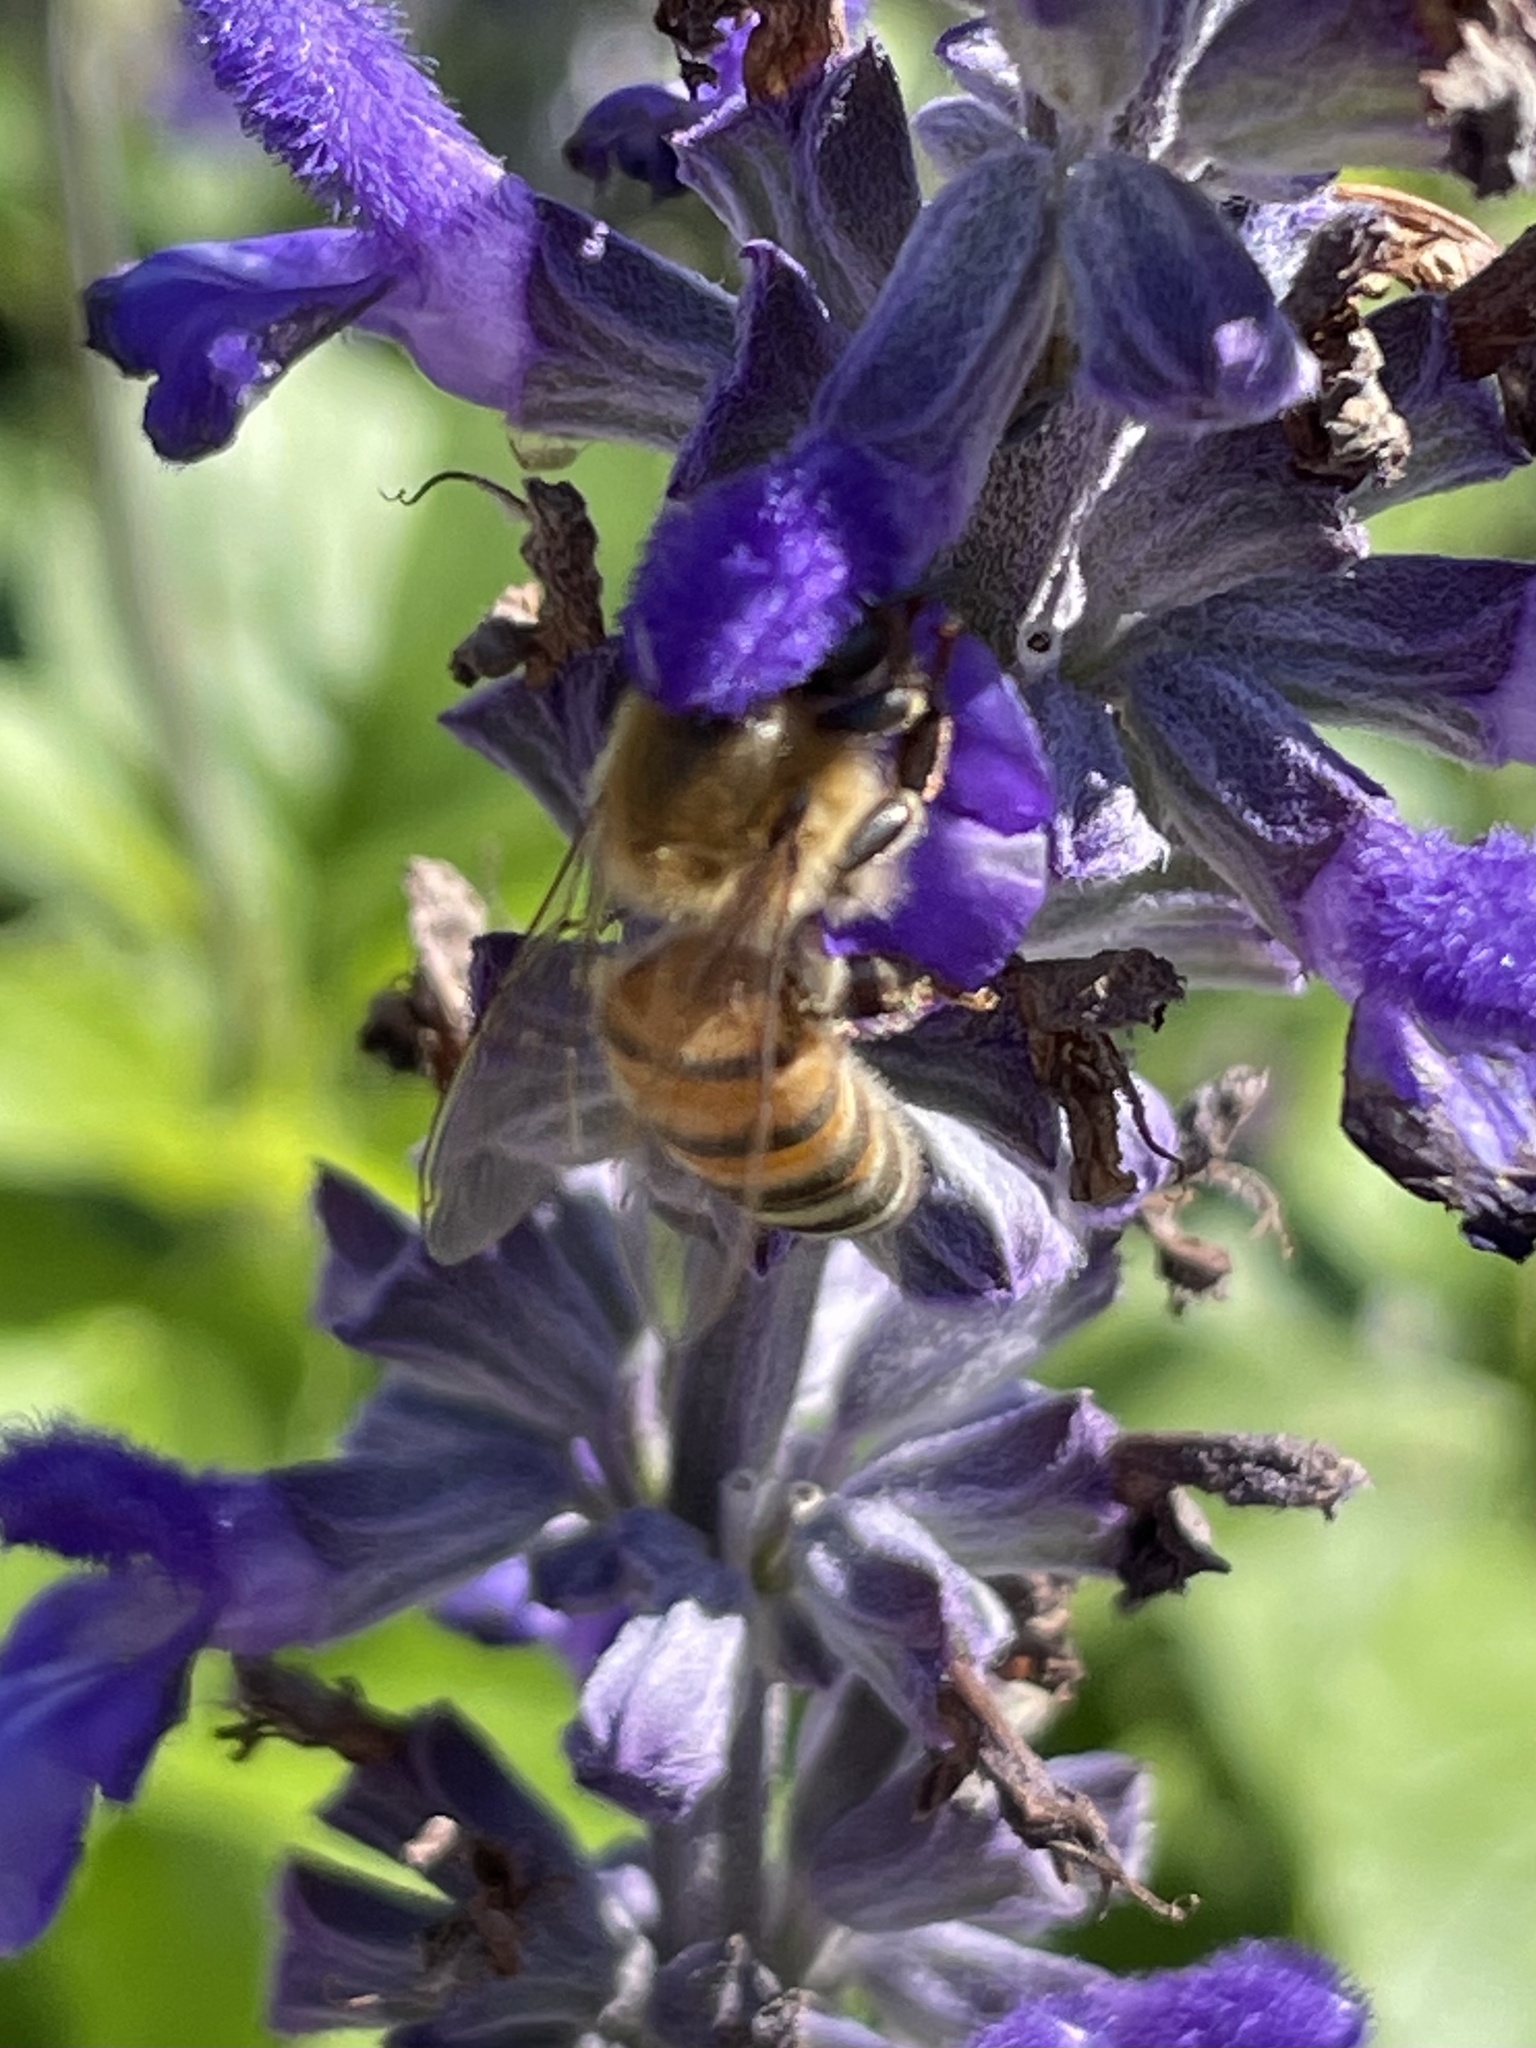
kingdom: Animalia
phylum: Arthropoda
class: Insecta
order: Hymenoptera
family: Apidae
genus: Apis
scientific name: Apis mellifera
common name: Honey bee
